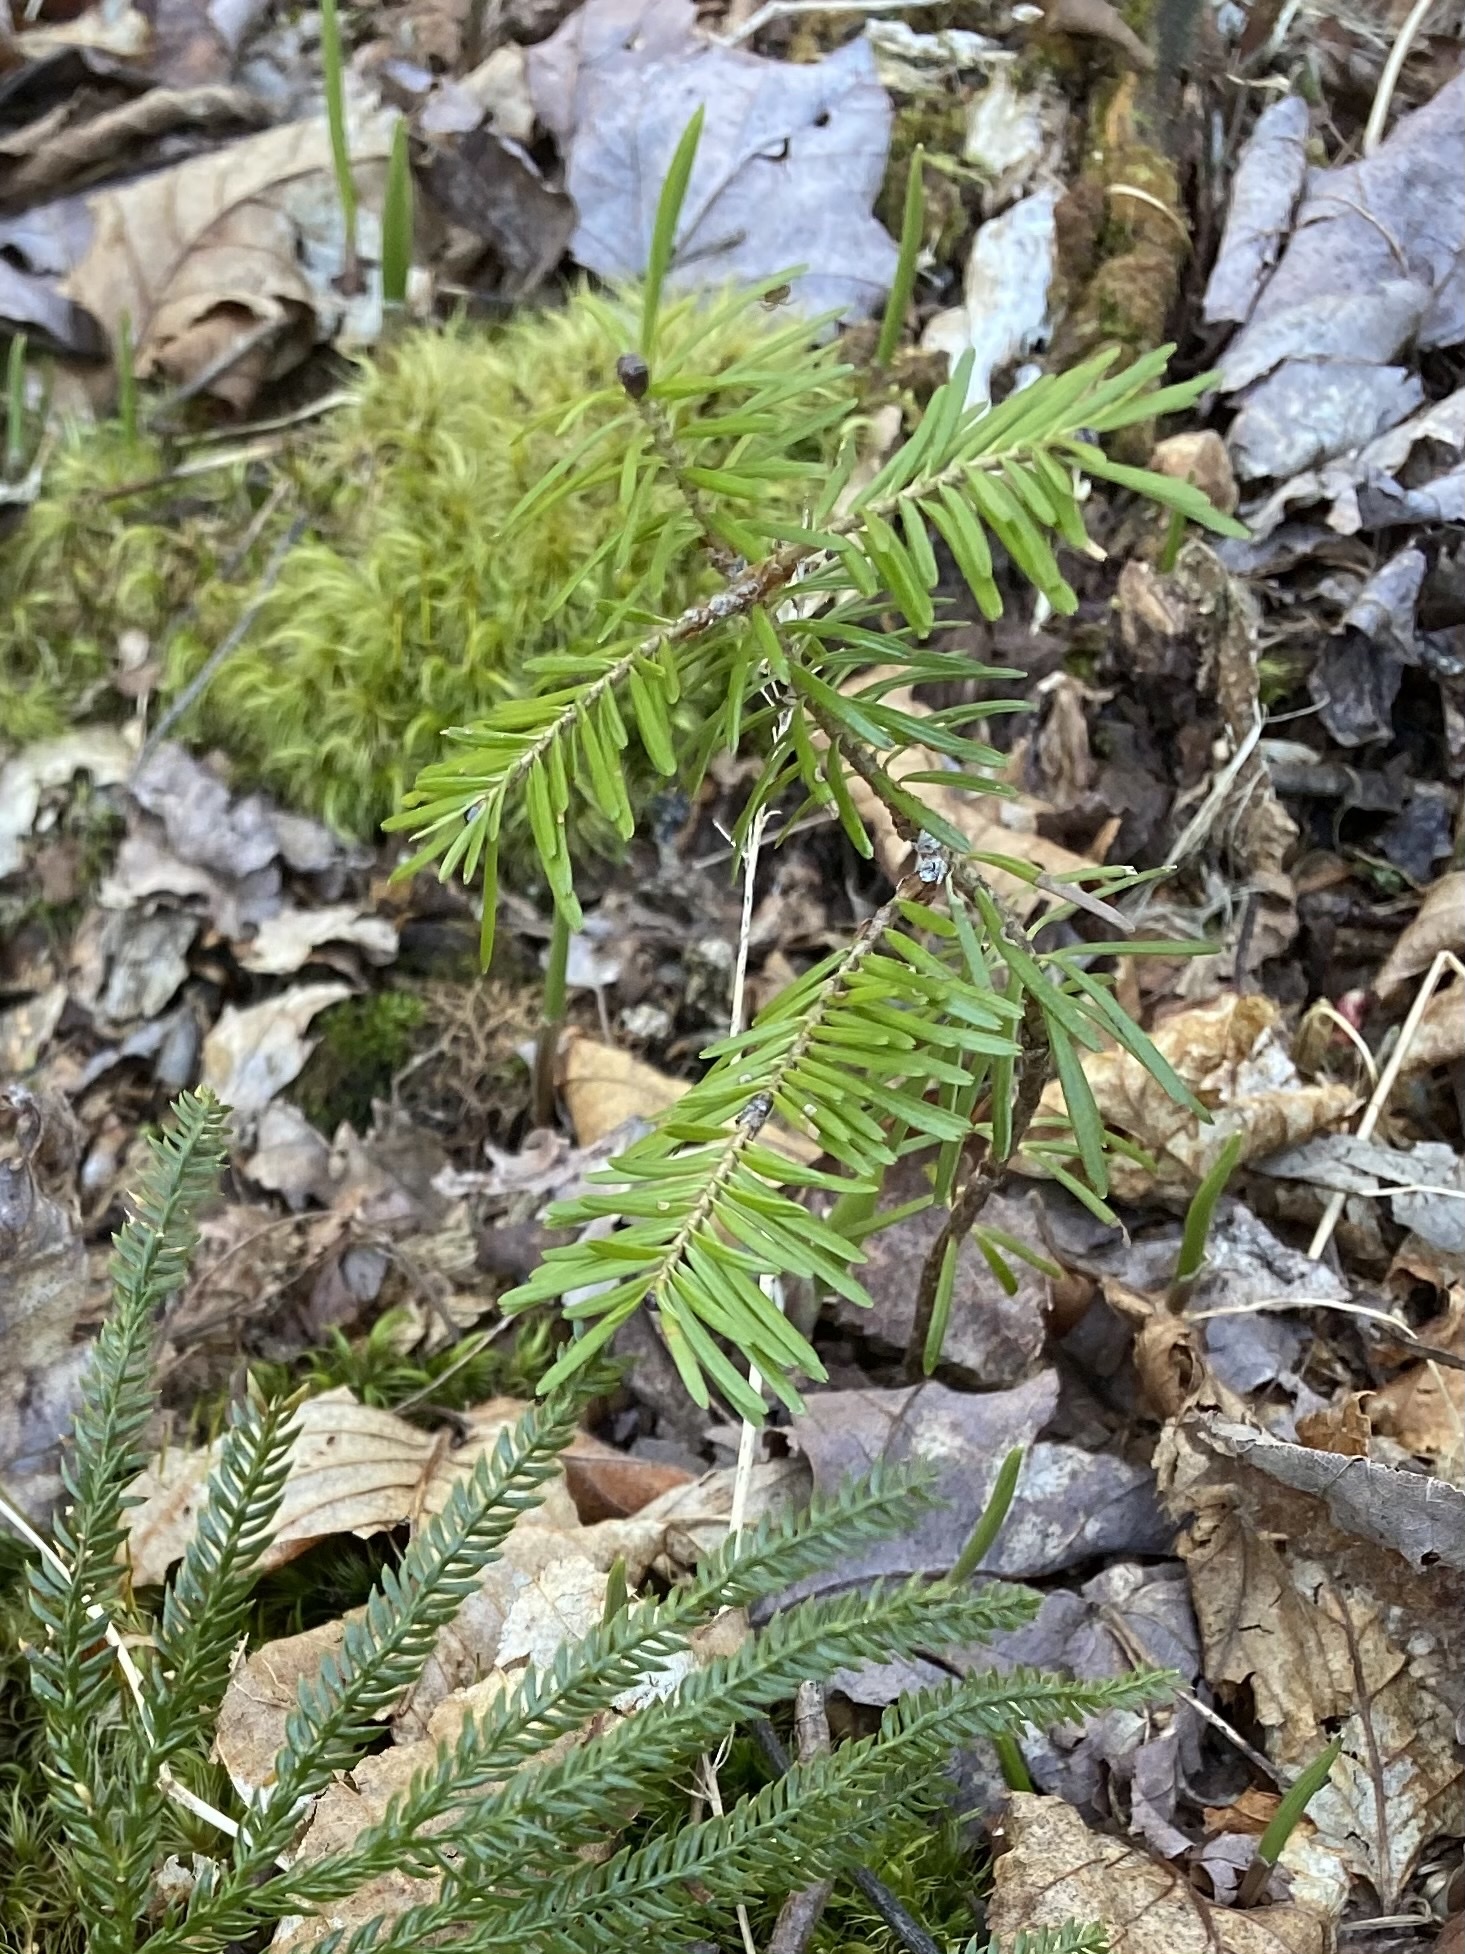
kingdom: Plantae
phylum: Tracheophyta
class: Pinopsida
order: Pinales
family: Pinaceae
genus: Abies
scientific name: Abies balsamea
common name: Balsam fir
